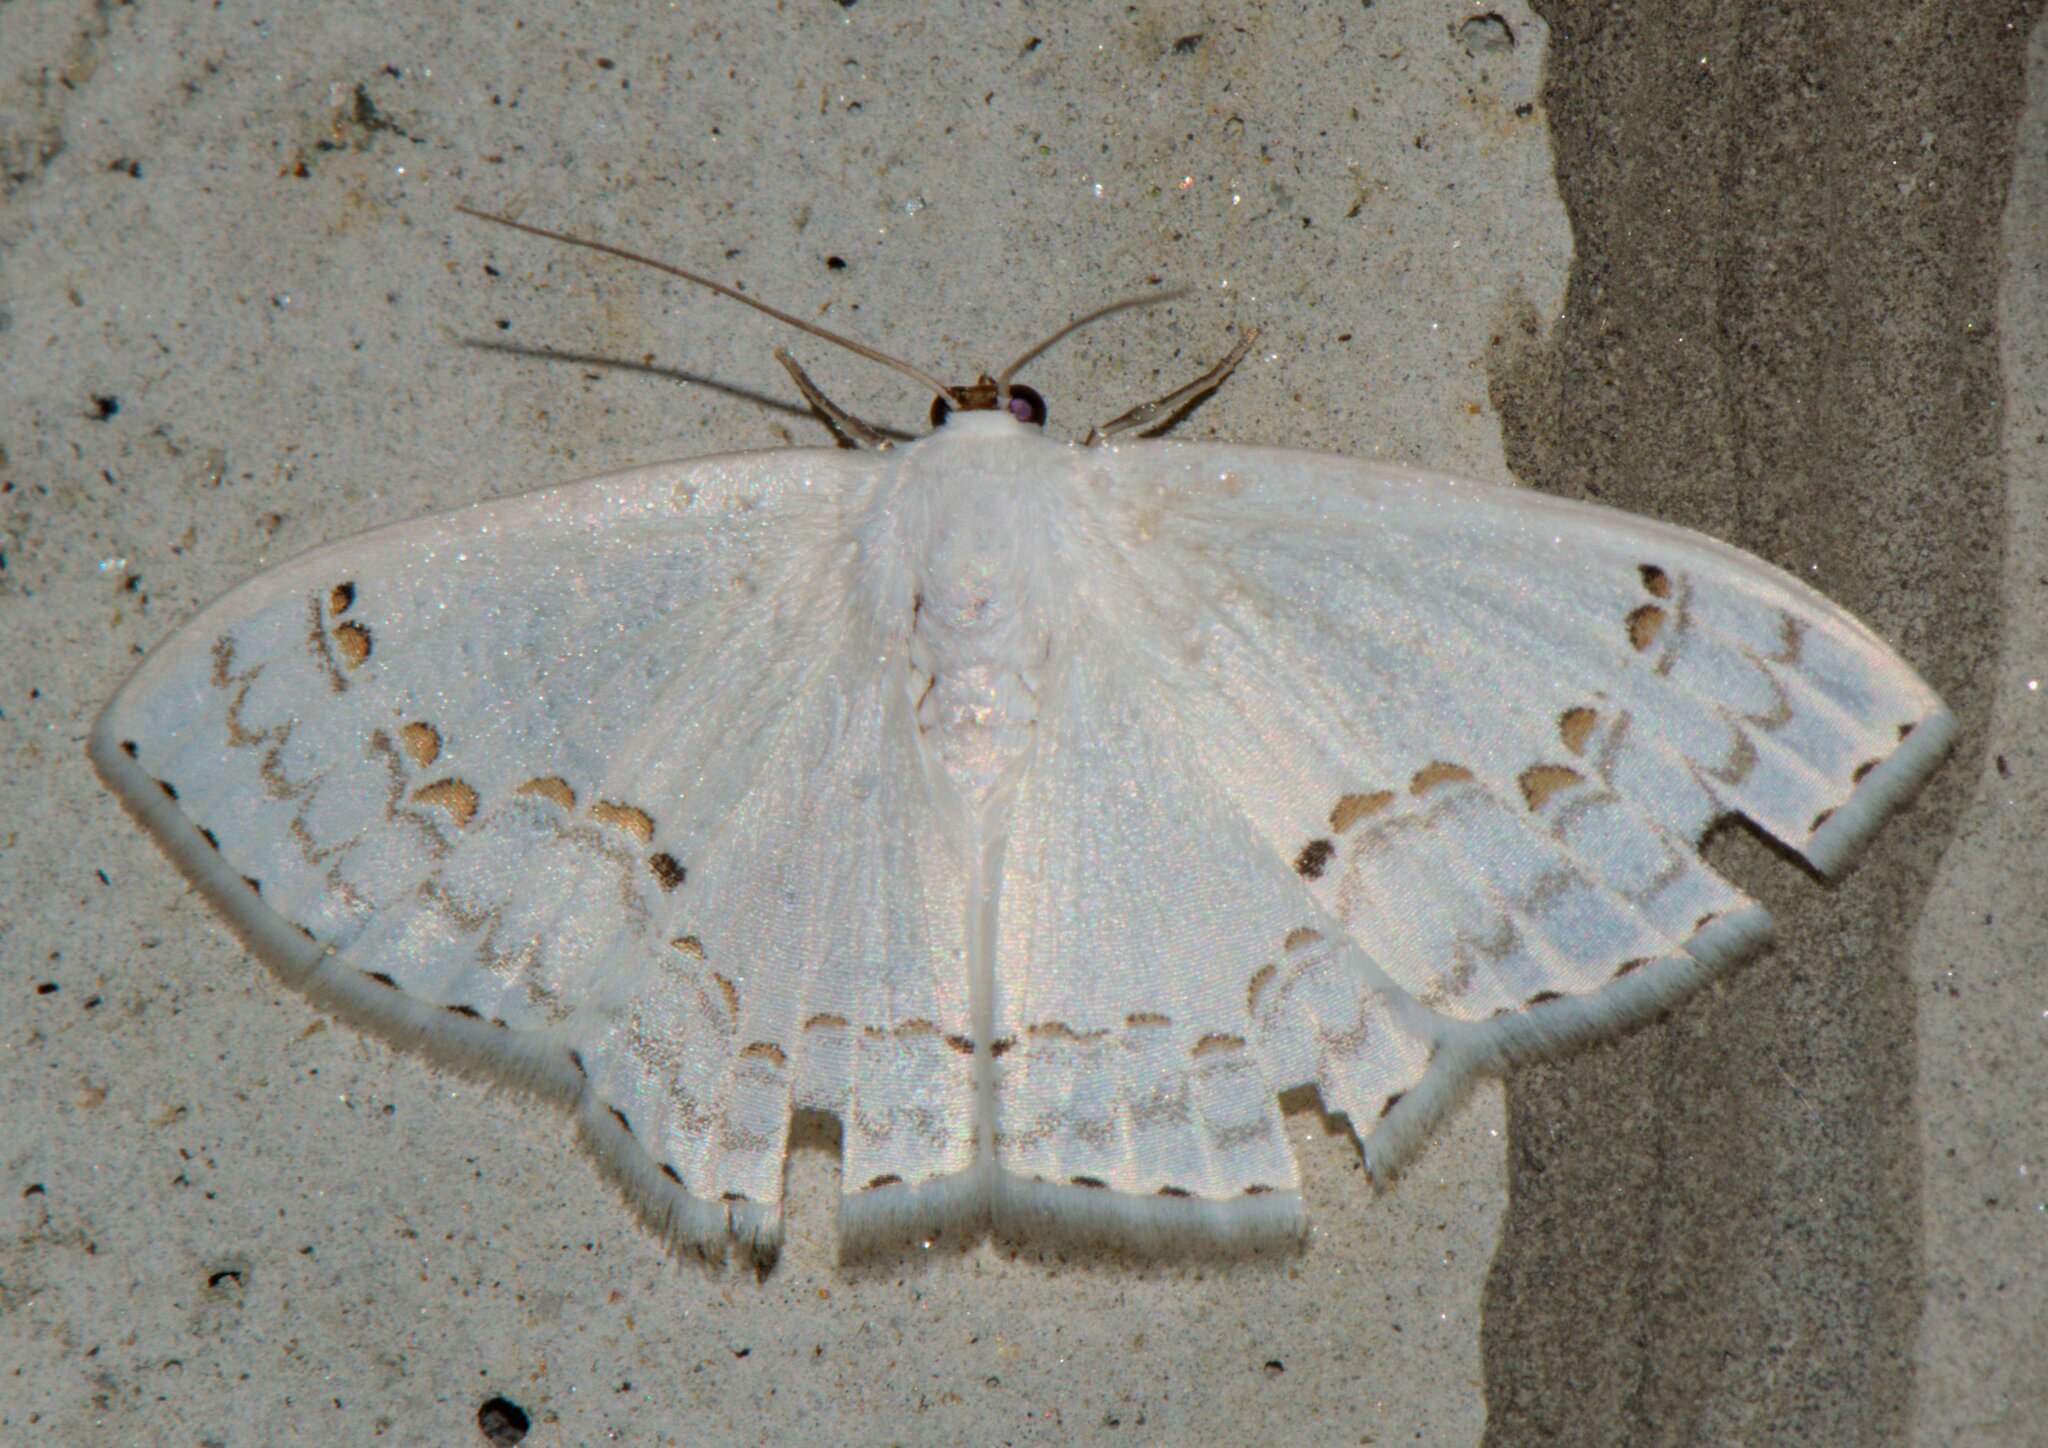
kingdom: Animalia
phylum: Arthropoda
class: Insecta
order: Lepidoptera
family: Drepanidae
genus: Teldenia
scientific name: Teldenia vestigiata
